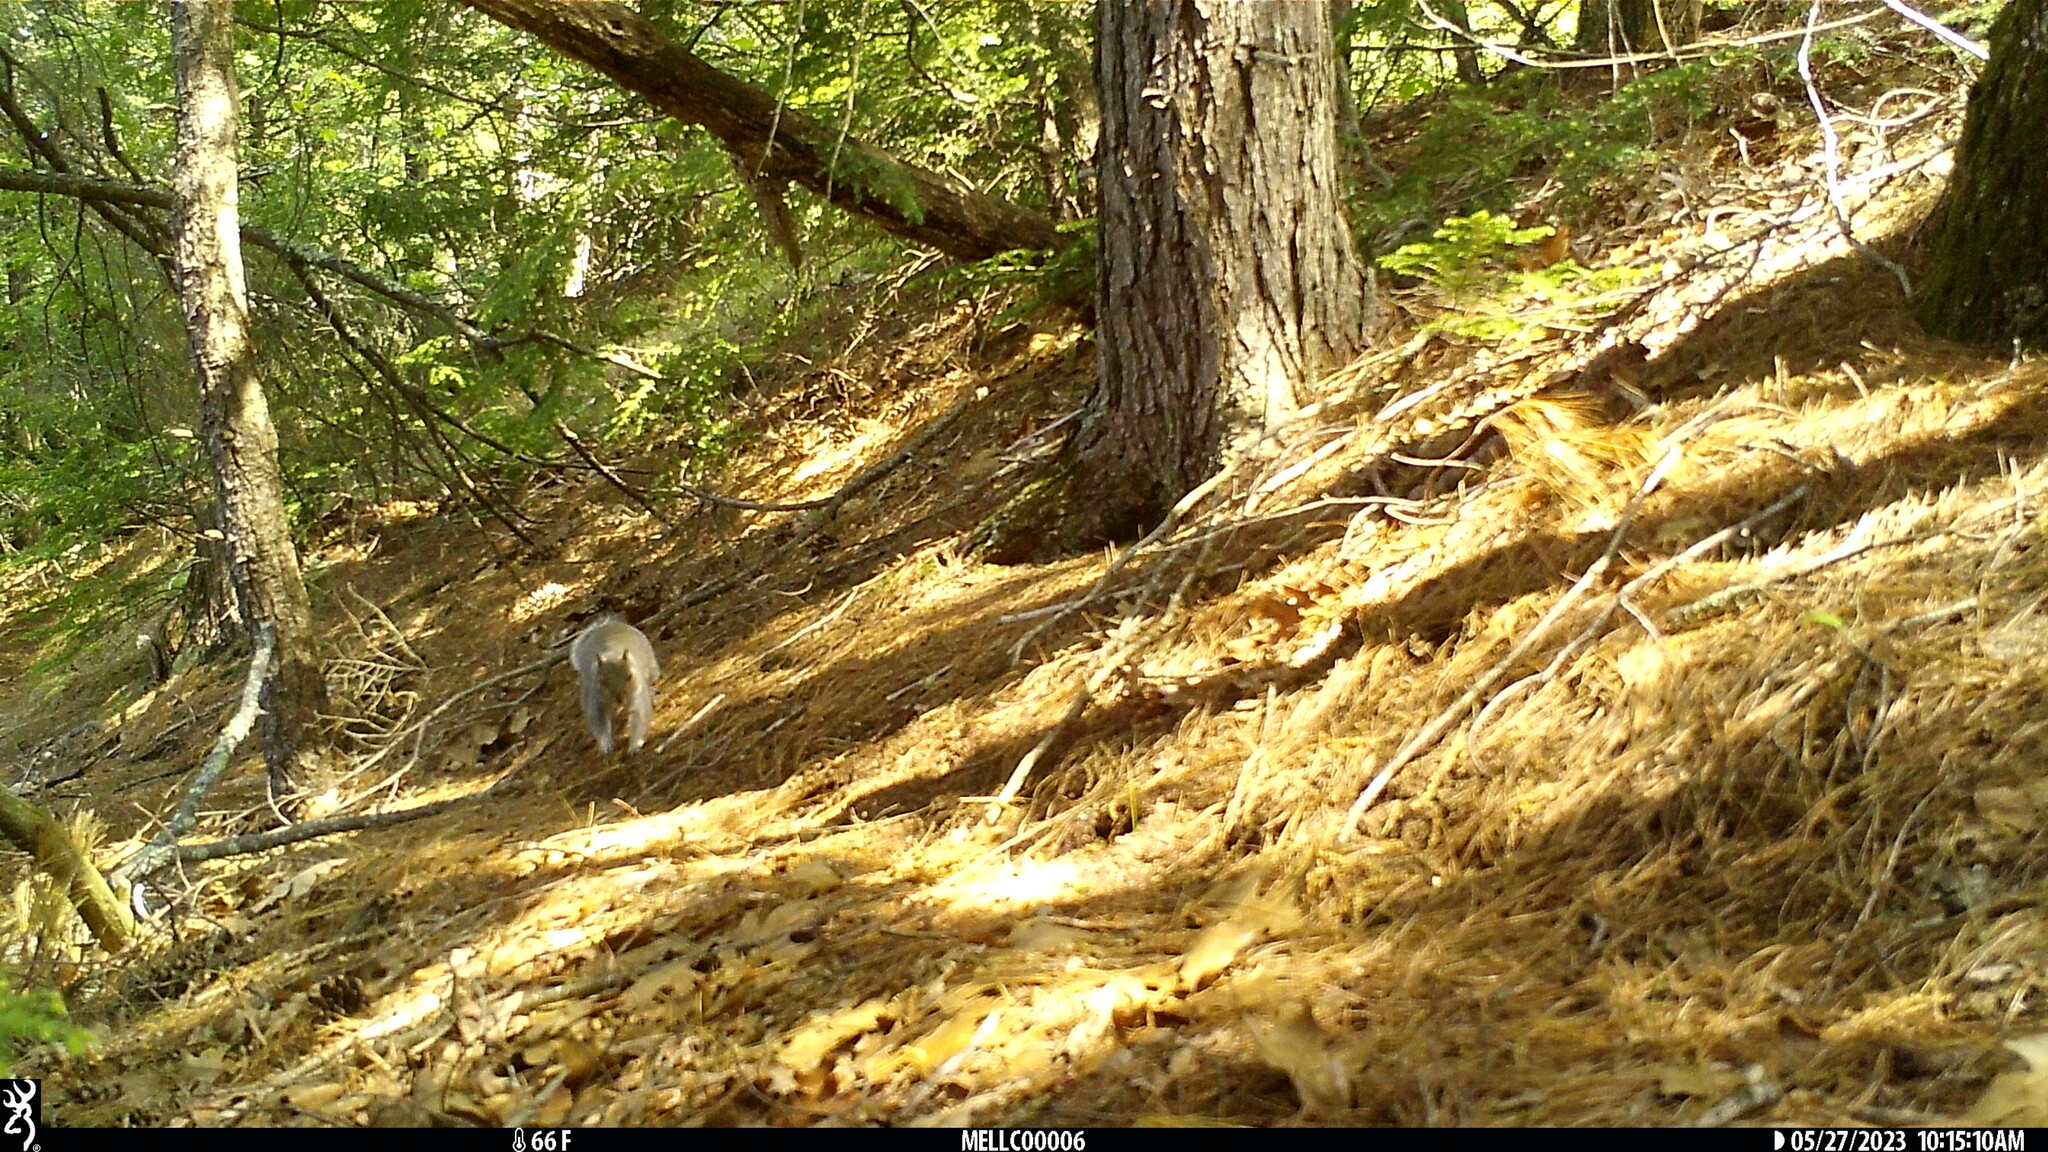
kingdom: Animalia
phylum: Chordata
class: Mammalia
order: Rodentia
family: Sciuridae
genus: Sciurus
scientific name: Sciurus carolinensis
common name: Eastern gray squirrel
